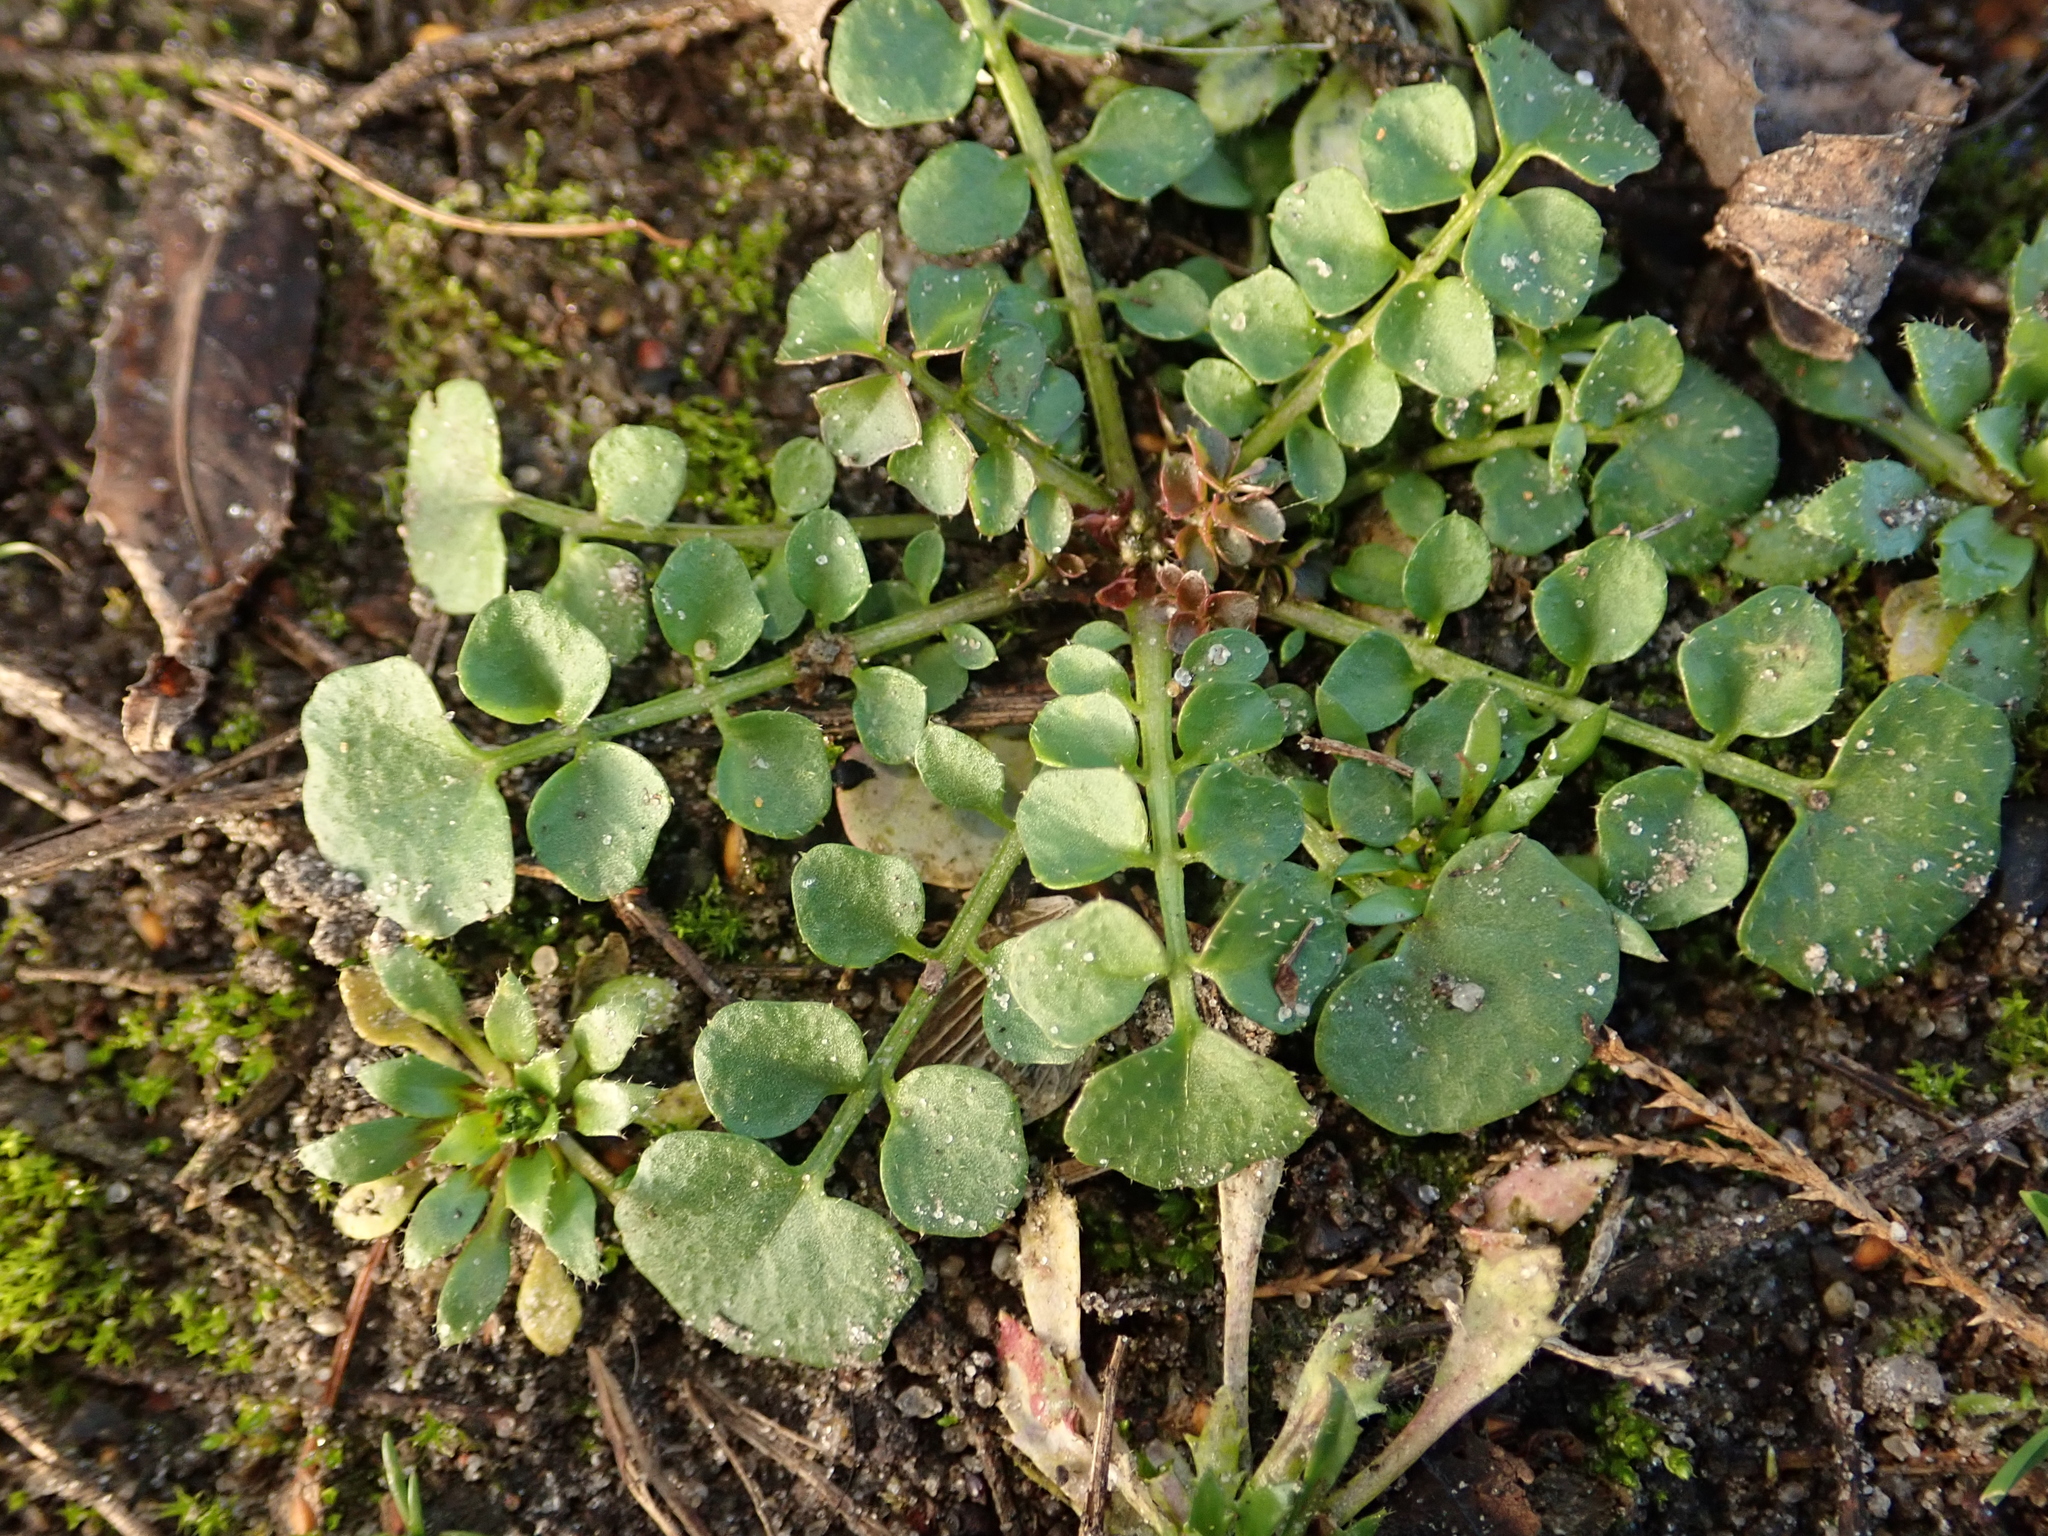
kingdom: Plantae
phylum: Tracheophyta
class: Magnoliopsida
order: Brassicales
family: Brassicaceae
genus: Cardamine
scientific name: Cardamine hirsuta
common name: Hairy bittercress
